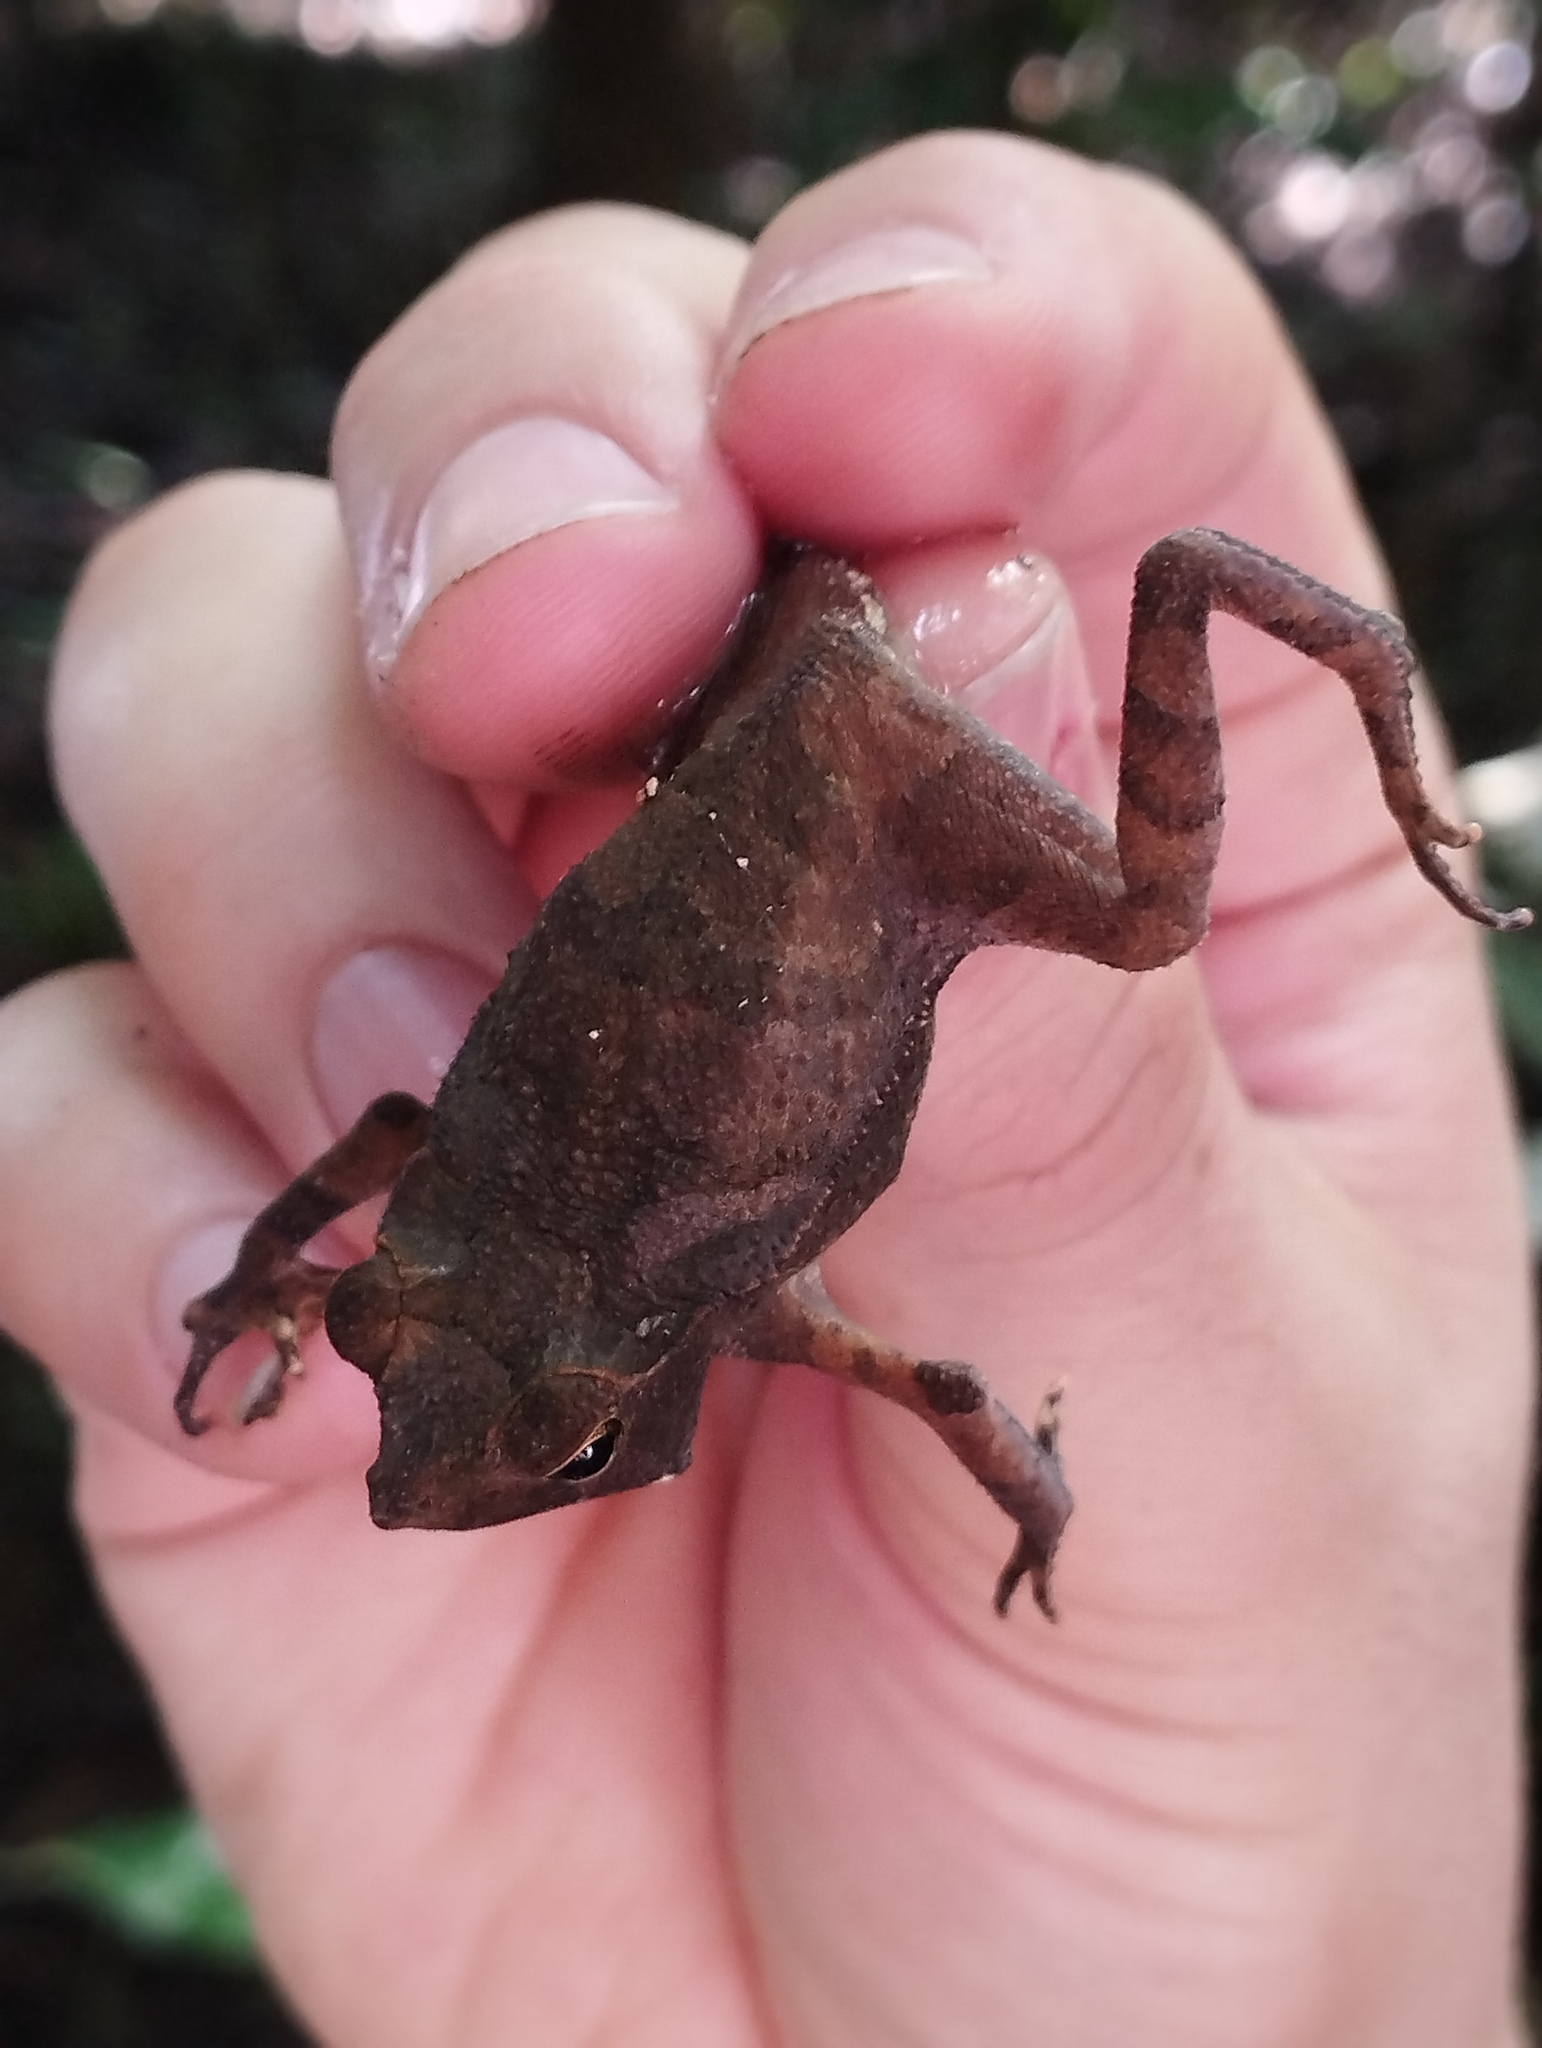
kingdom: Animalia
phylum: Chordata
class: Amphibia
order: Anura
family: Bufonidae
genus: Rhinella
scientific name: Rhinella margaritifera
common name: Mitred toad
